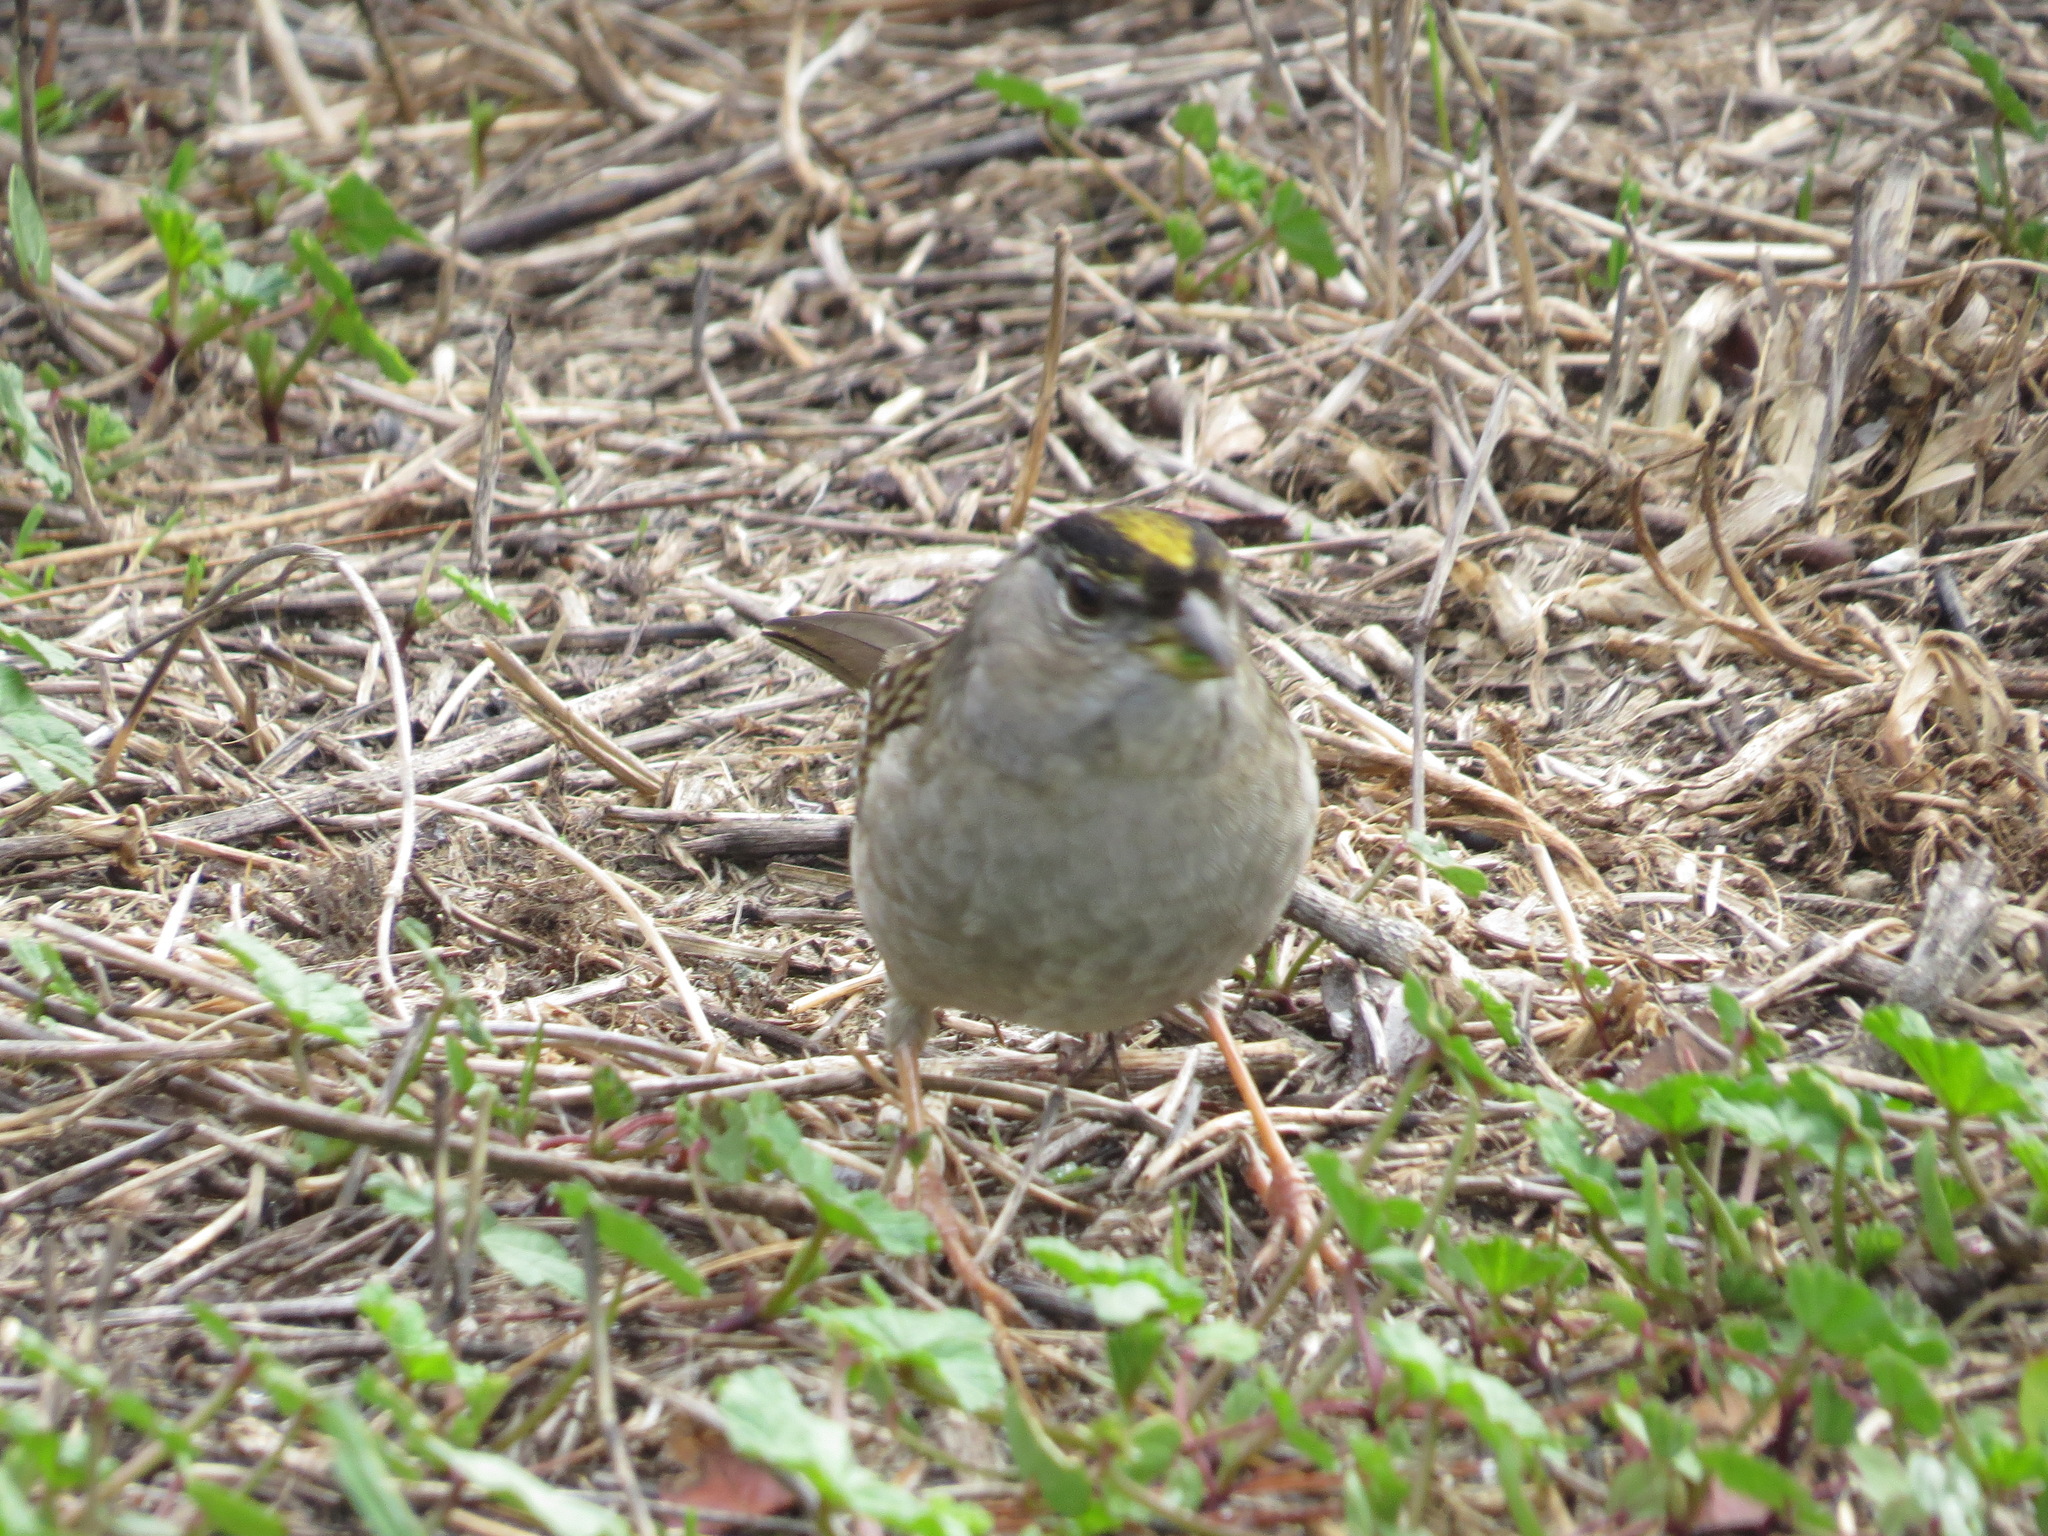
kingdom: Animalia
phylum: Chordata
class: Aves
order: Passeriformes
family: Passerellidae
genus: Zonotrichia
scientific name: Zonotrichia atricapilla
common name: Golden-crowned sparrow
